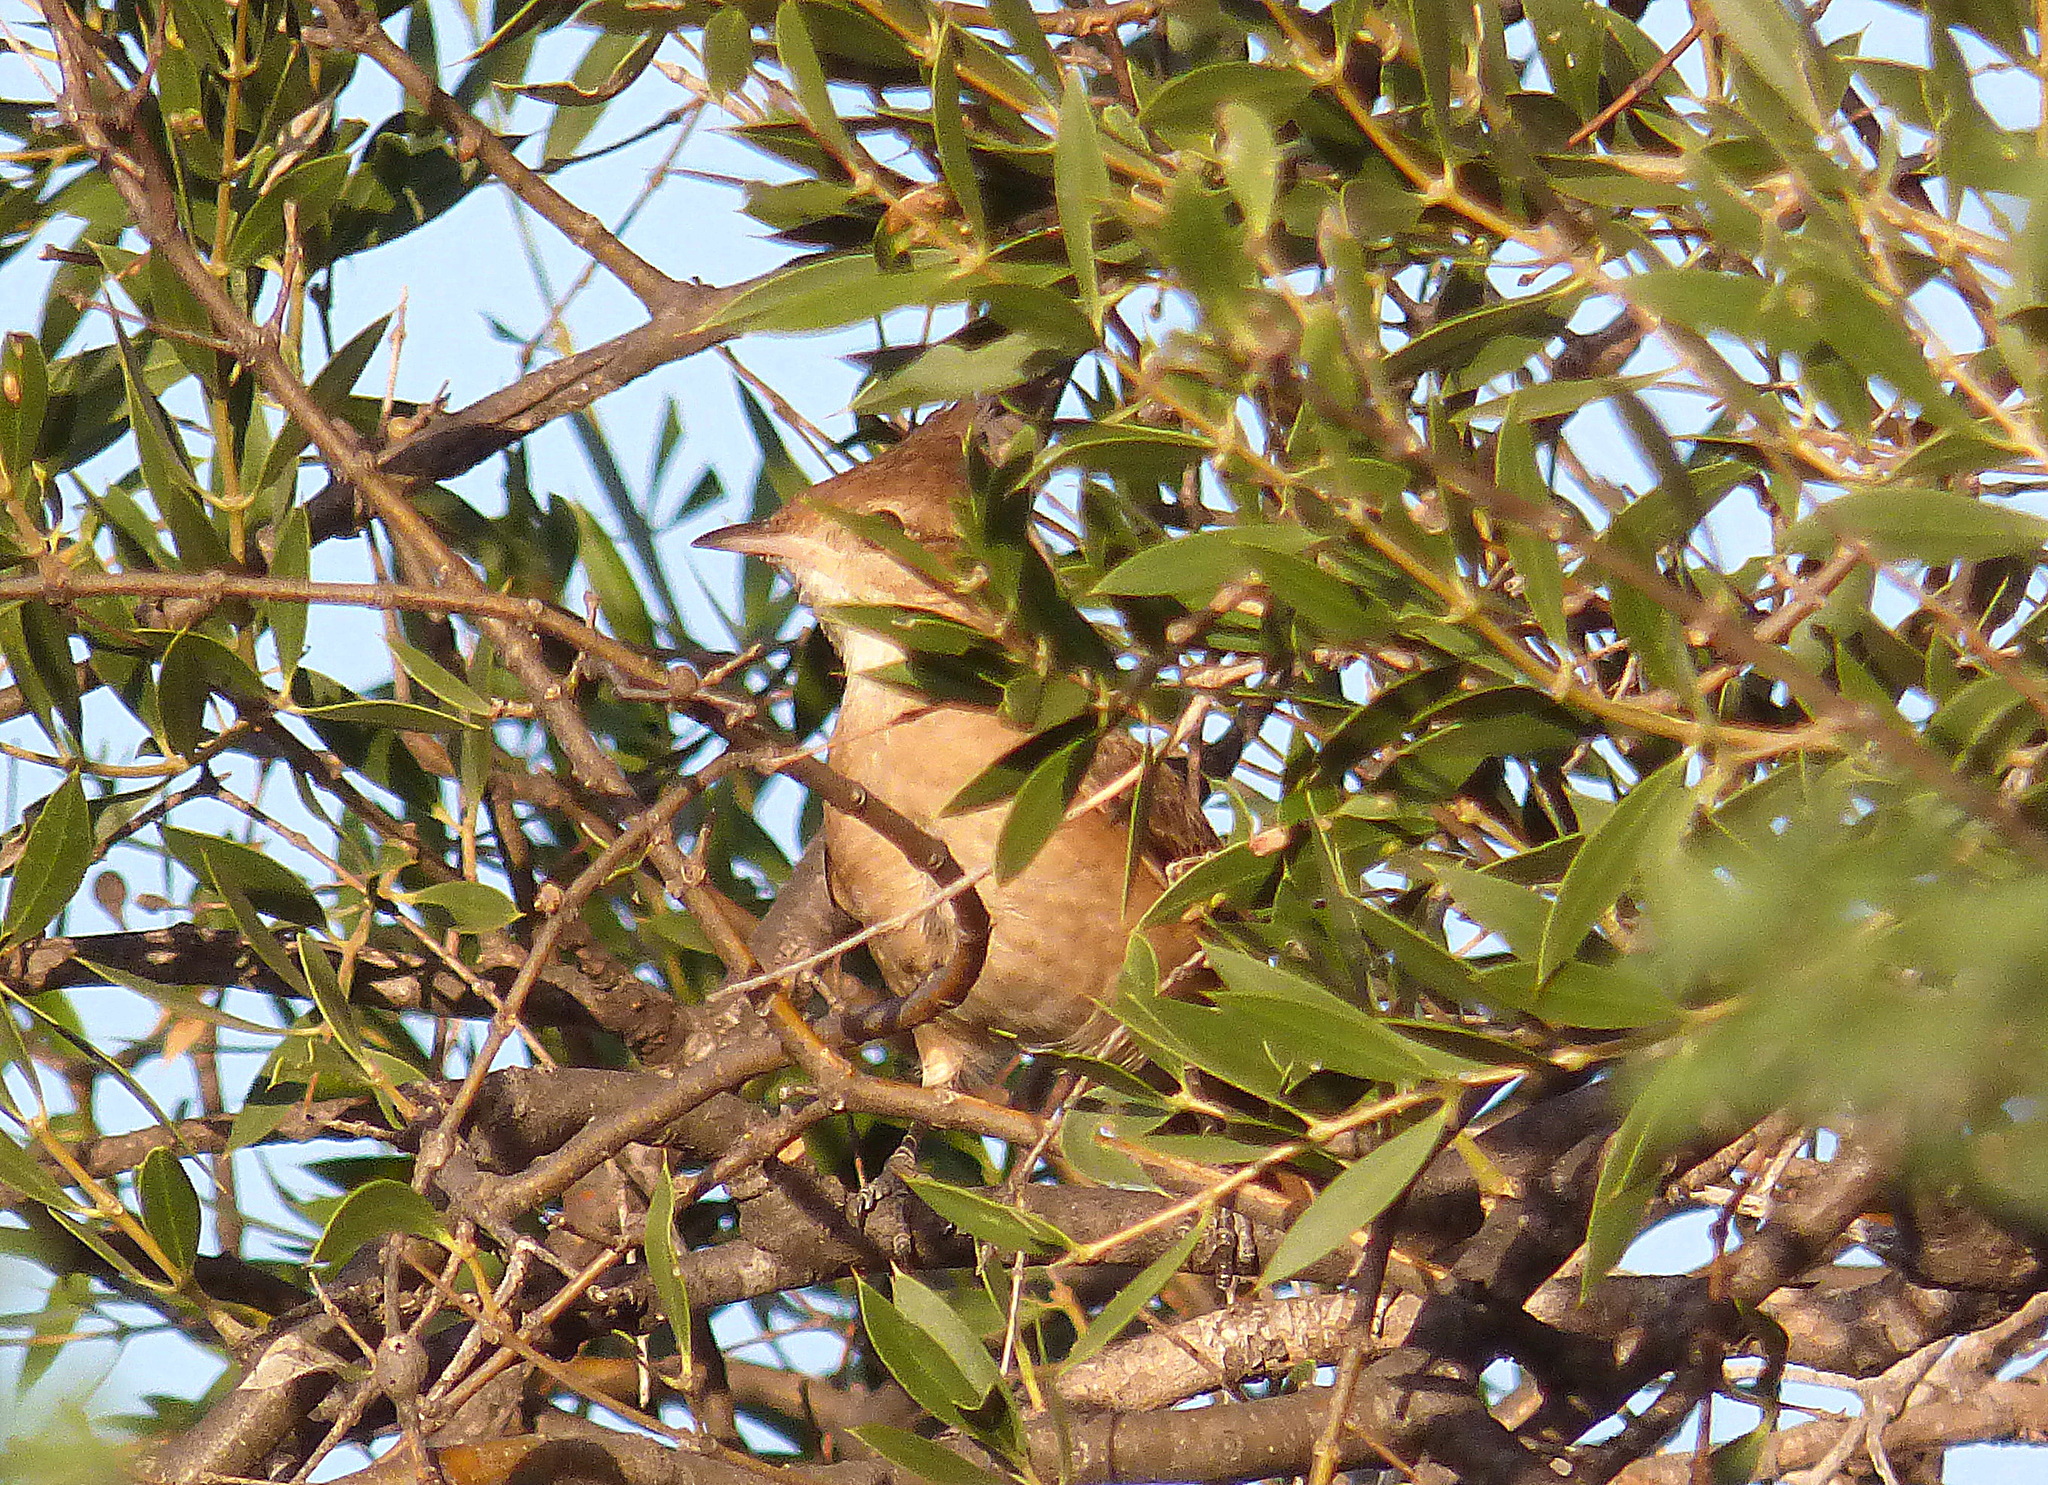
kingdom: Animalia
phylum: Chordata
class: Aves
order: Passeriformes
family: Furnariidae
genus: Furnarius
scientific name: Furnarius cristatus
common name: Crested hornero
